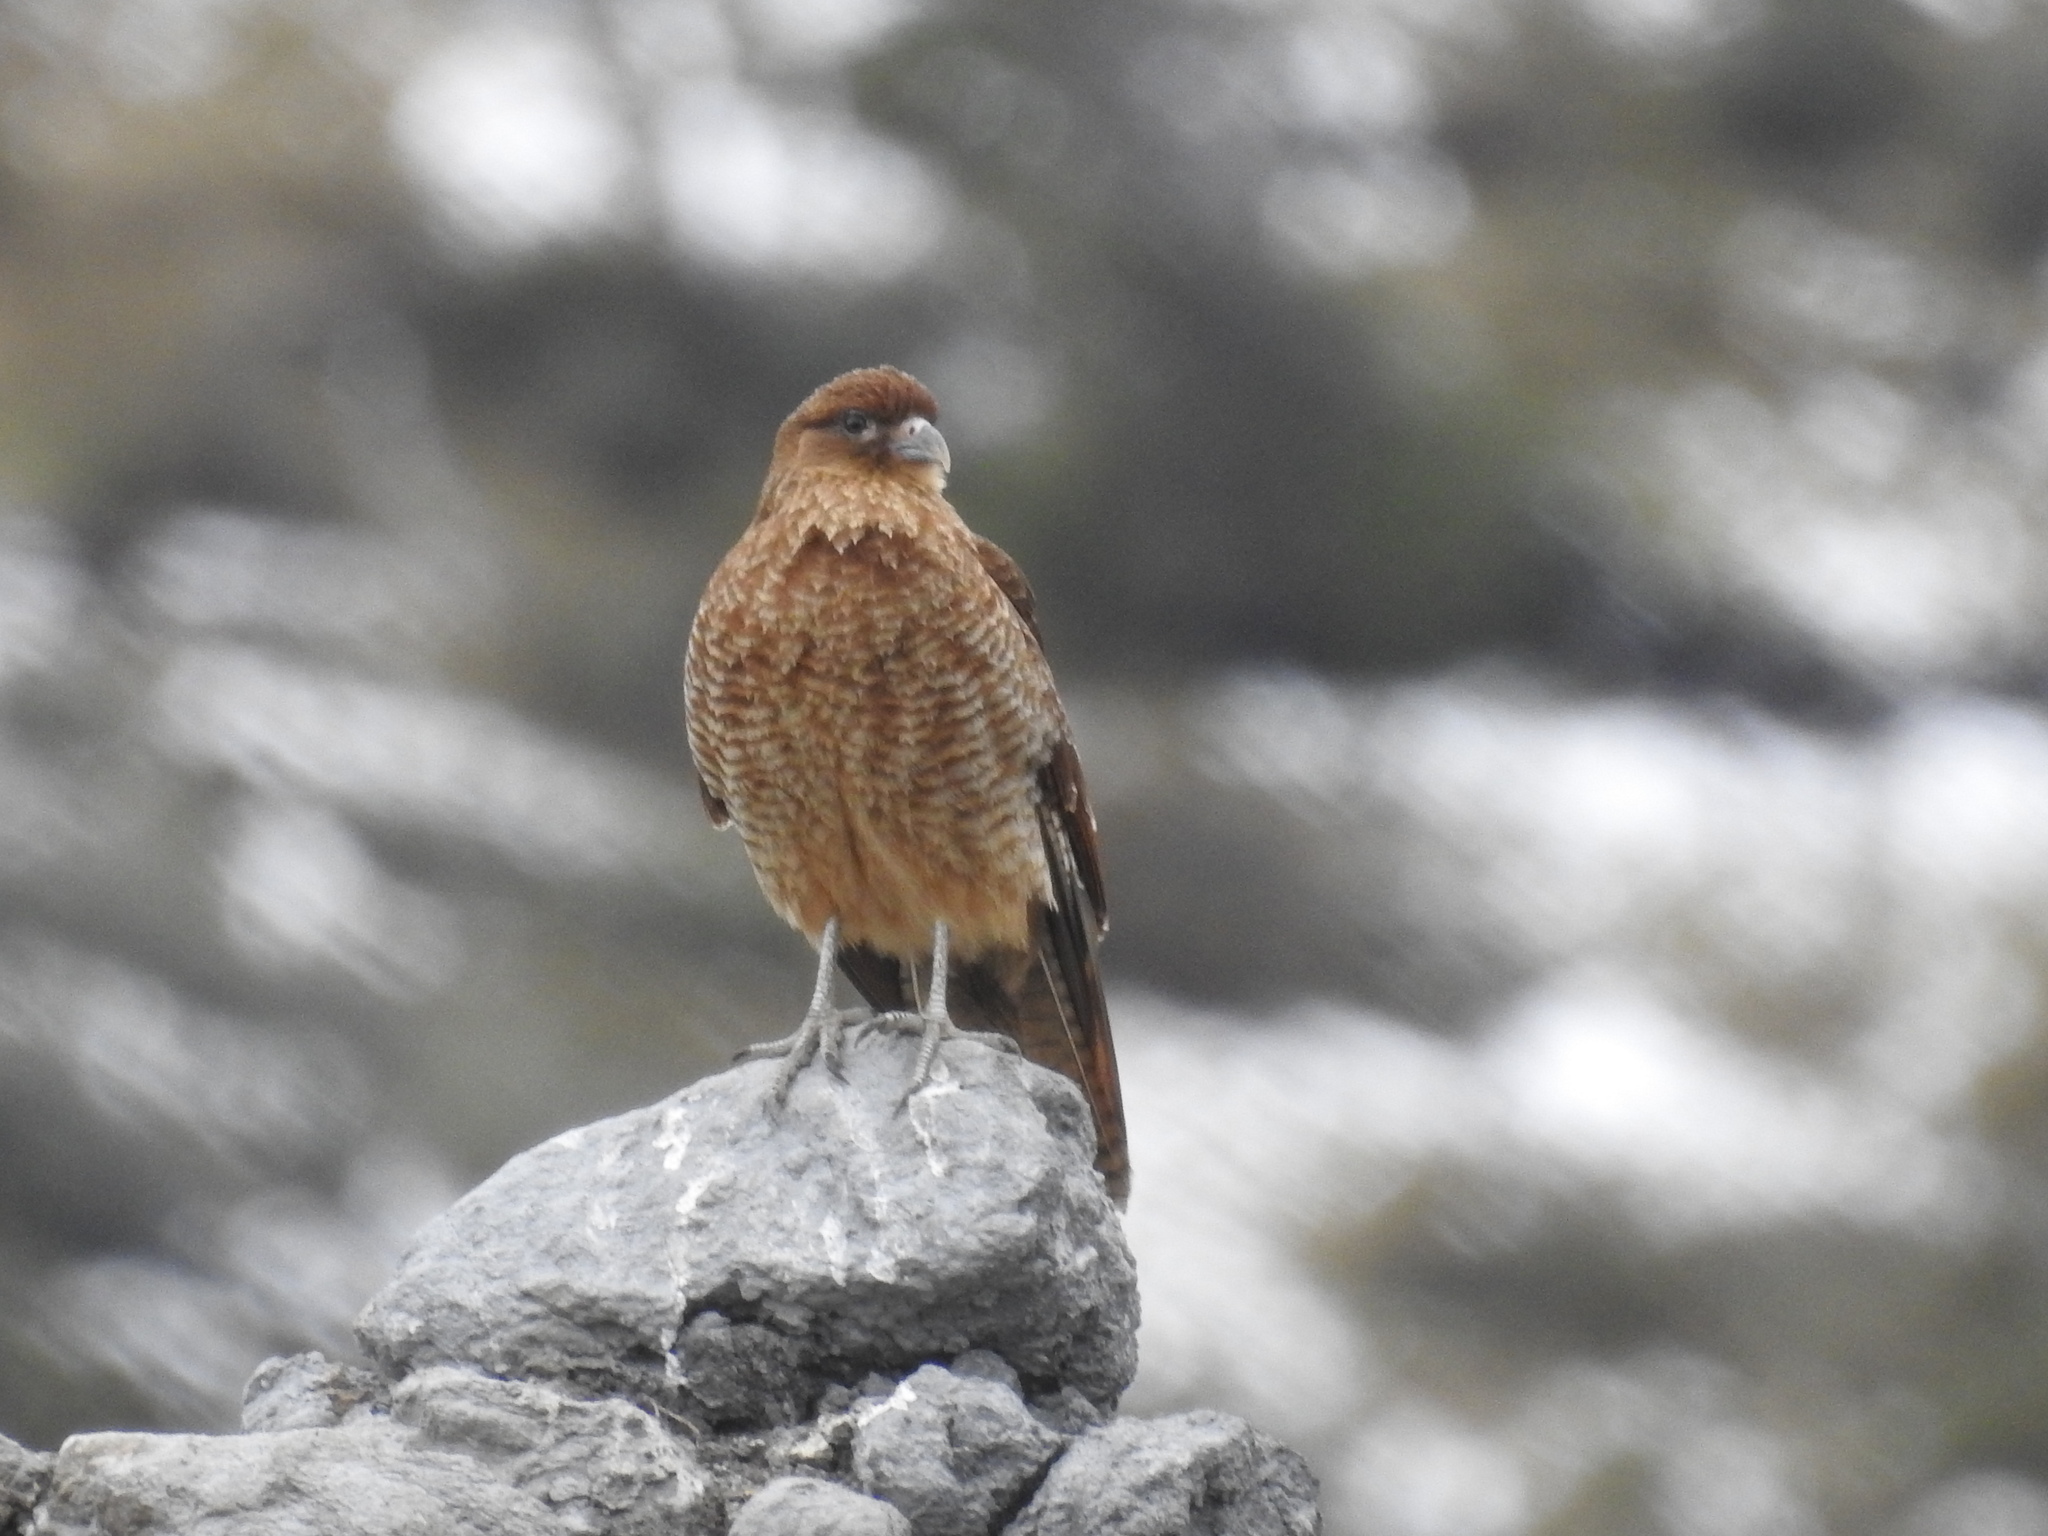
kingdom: Animalia
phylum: Chordata
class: Aves
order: Falconiformes
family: Falconidae
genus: Daptrius
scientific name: Daptrius
